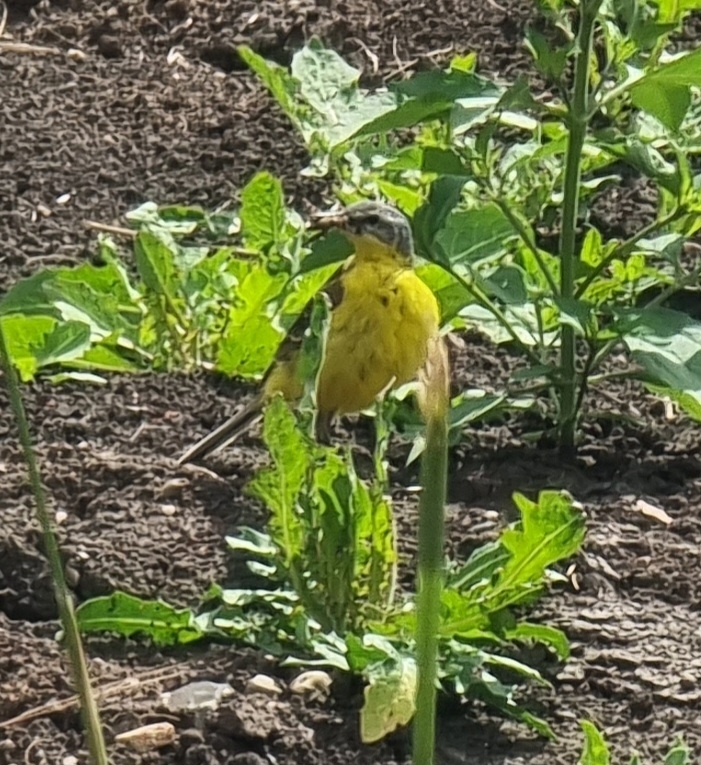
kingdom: Animalia
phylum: Chordata
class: Aves
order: Passeriformes
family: Motacillidae
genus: Motacilla
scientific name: Motacilla flava
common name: Western yellow wagtail
